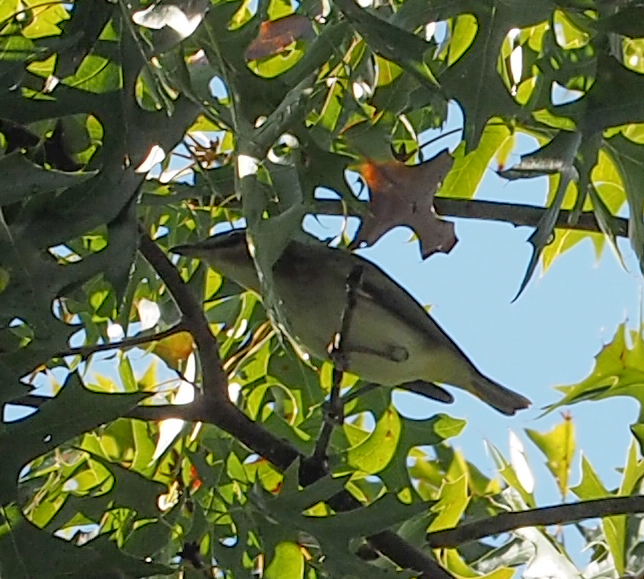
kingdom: Animalia
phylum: Chordata
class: Aves
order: Passeriformes
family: Vireonidae
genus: Vireo
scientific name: Vireo olivaceus
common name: Red-eyed vireo
